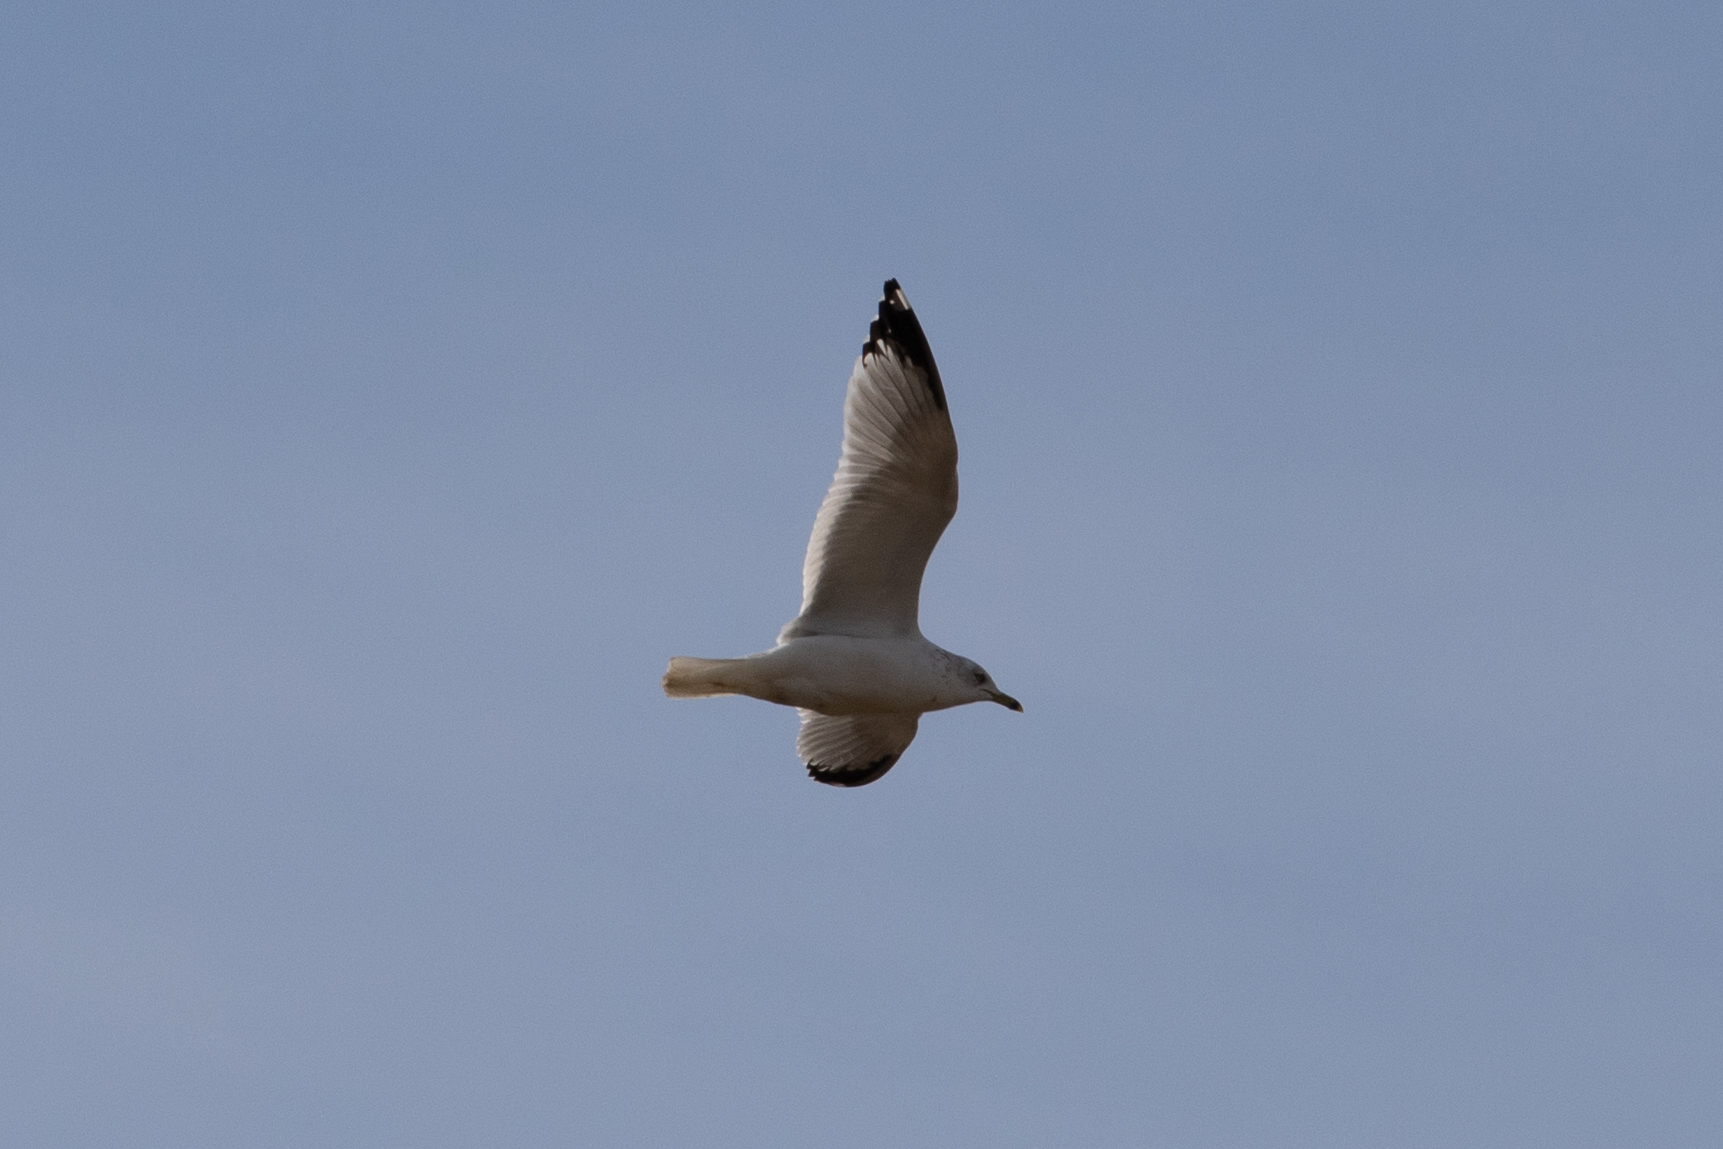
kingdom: Animalia
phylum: Chordata
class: Aves
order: Charadriiformes
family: Laridae
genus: Larus
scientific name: Larus delawarensis
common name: Ring-billed gull
